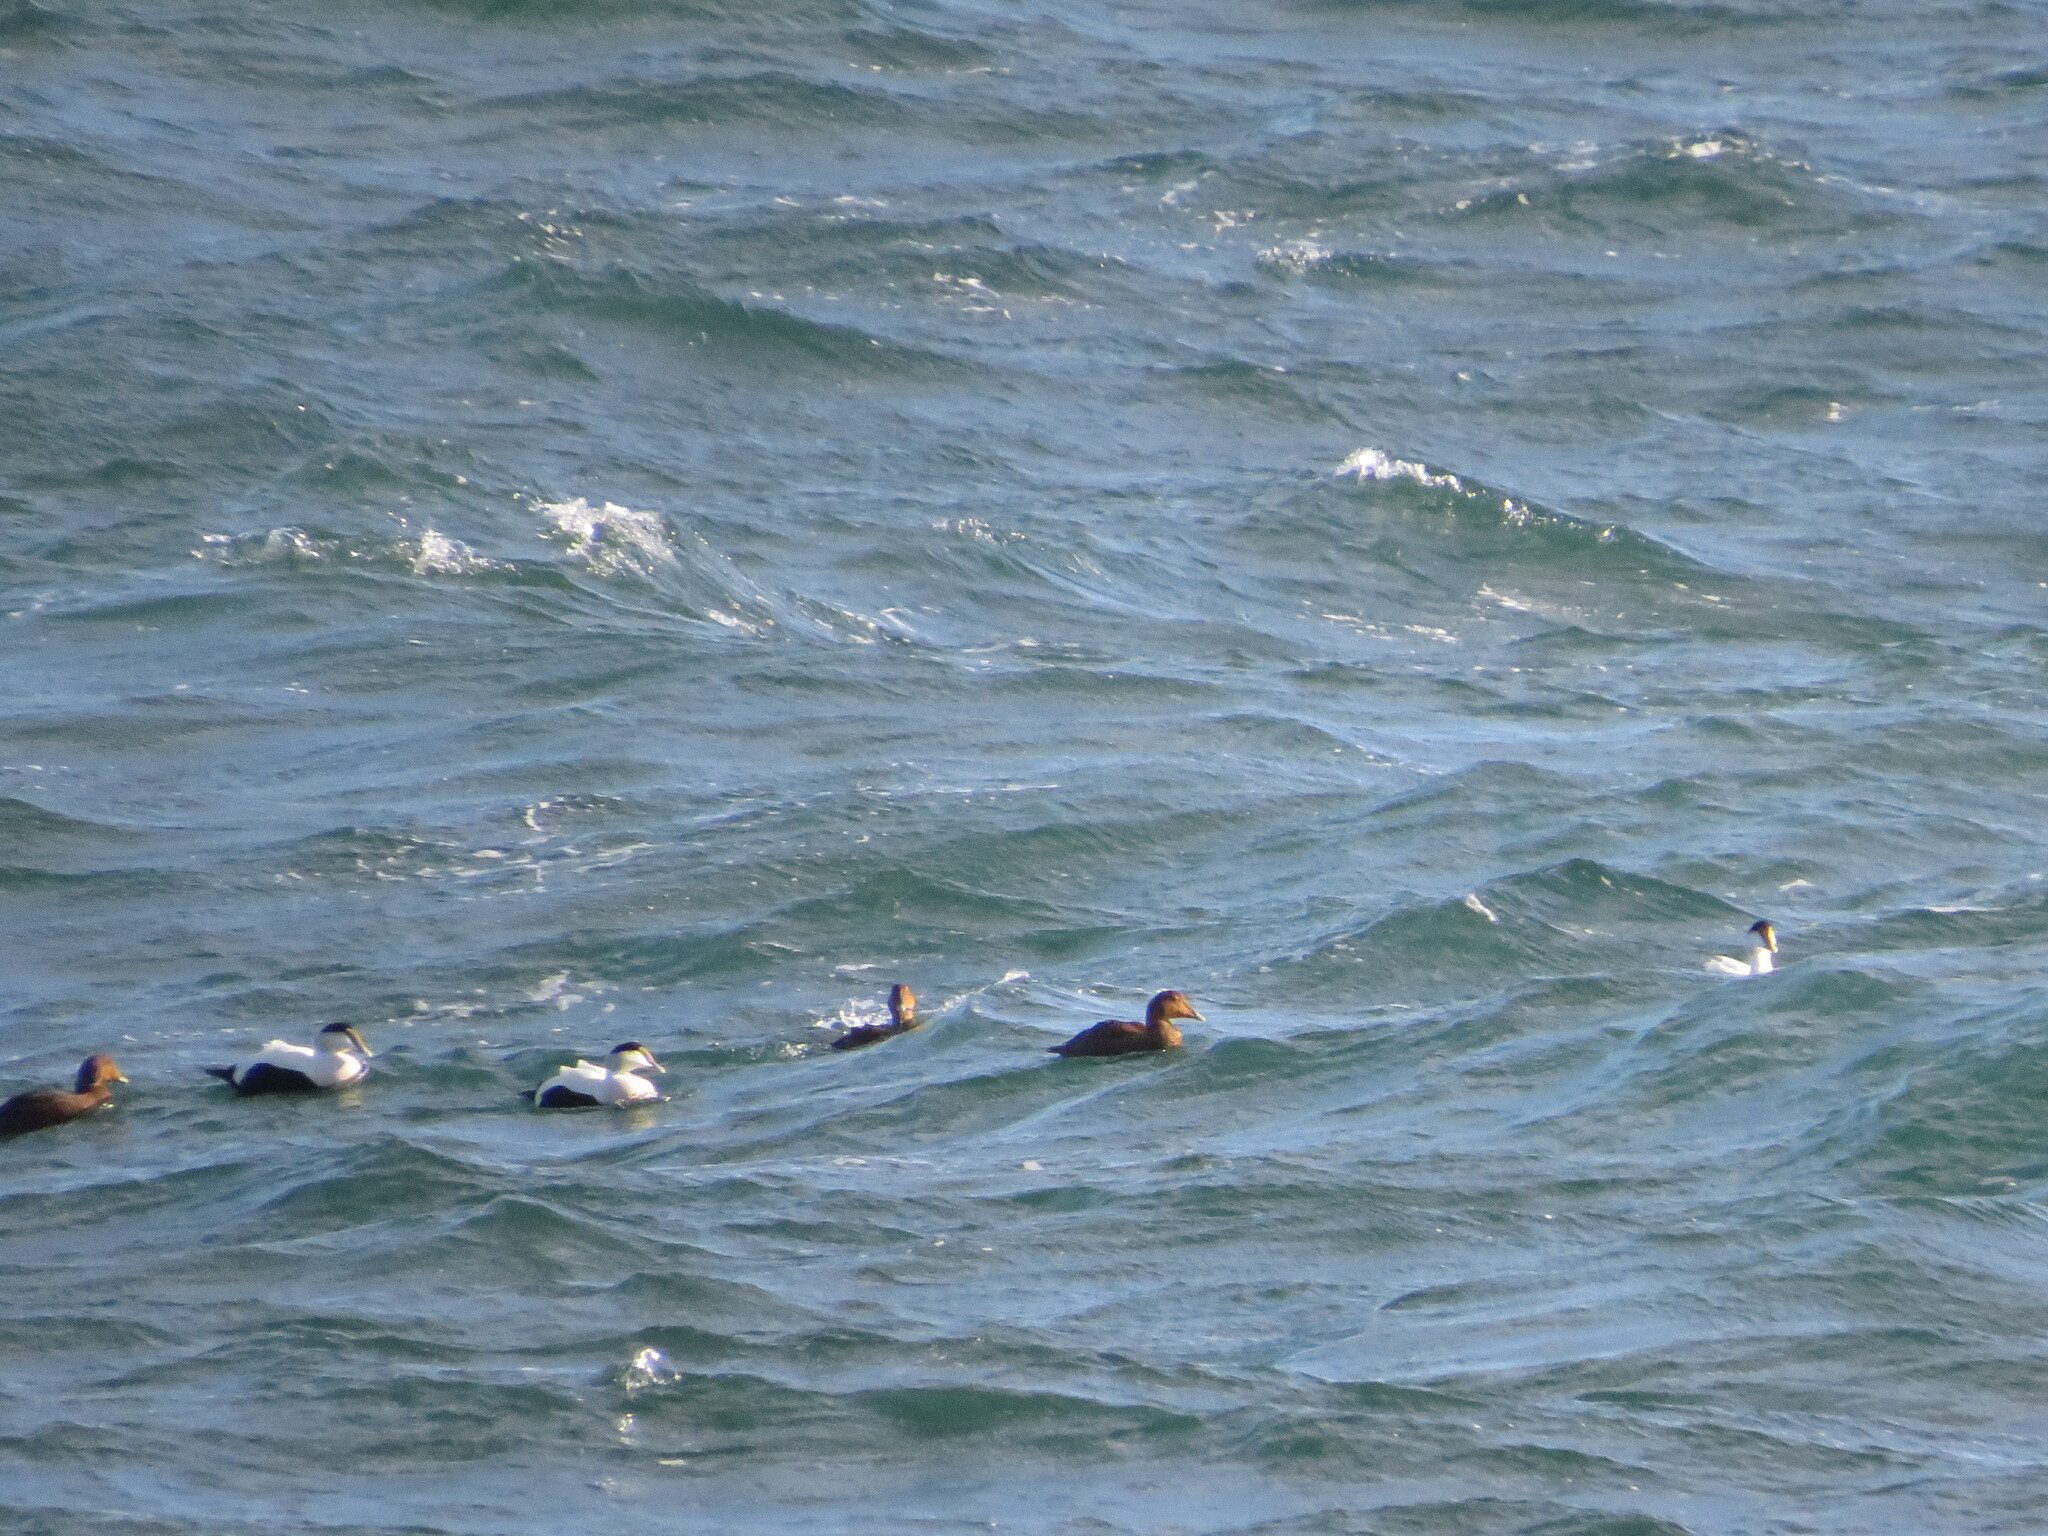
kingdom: Animalia
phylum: Chordata
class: Aves
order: Anseriformes
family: Anatidae
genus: Somateria
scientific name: Somateria mollissima
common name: Common eider
